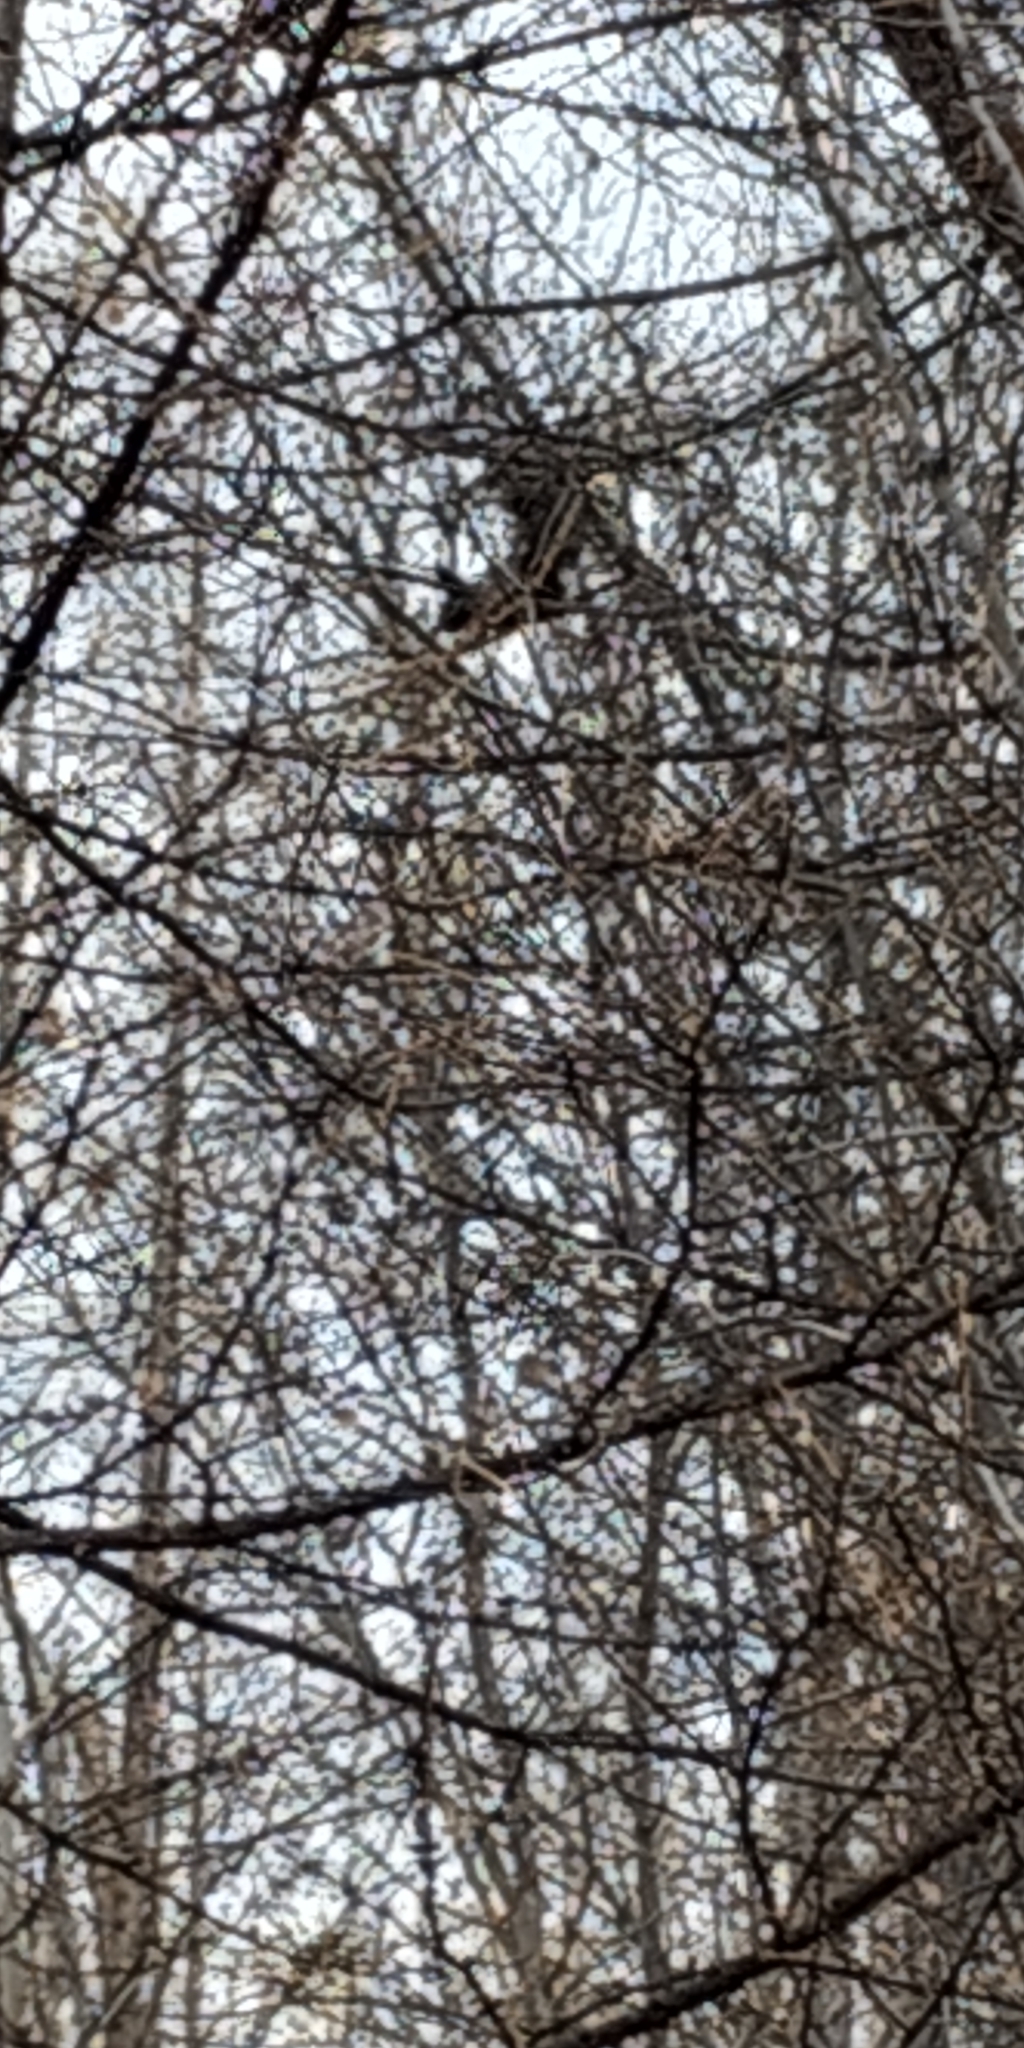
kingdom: Animalia
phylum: Chordata
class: Mammalia
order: Rodentia
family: Sciuridae
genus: Sciurus
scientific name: Sciurus vulgaris
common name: Eurasian red squirrel
